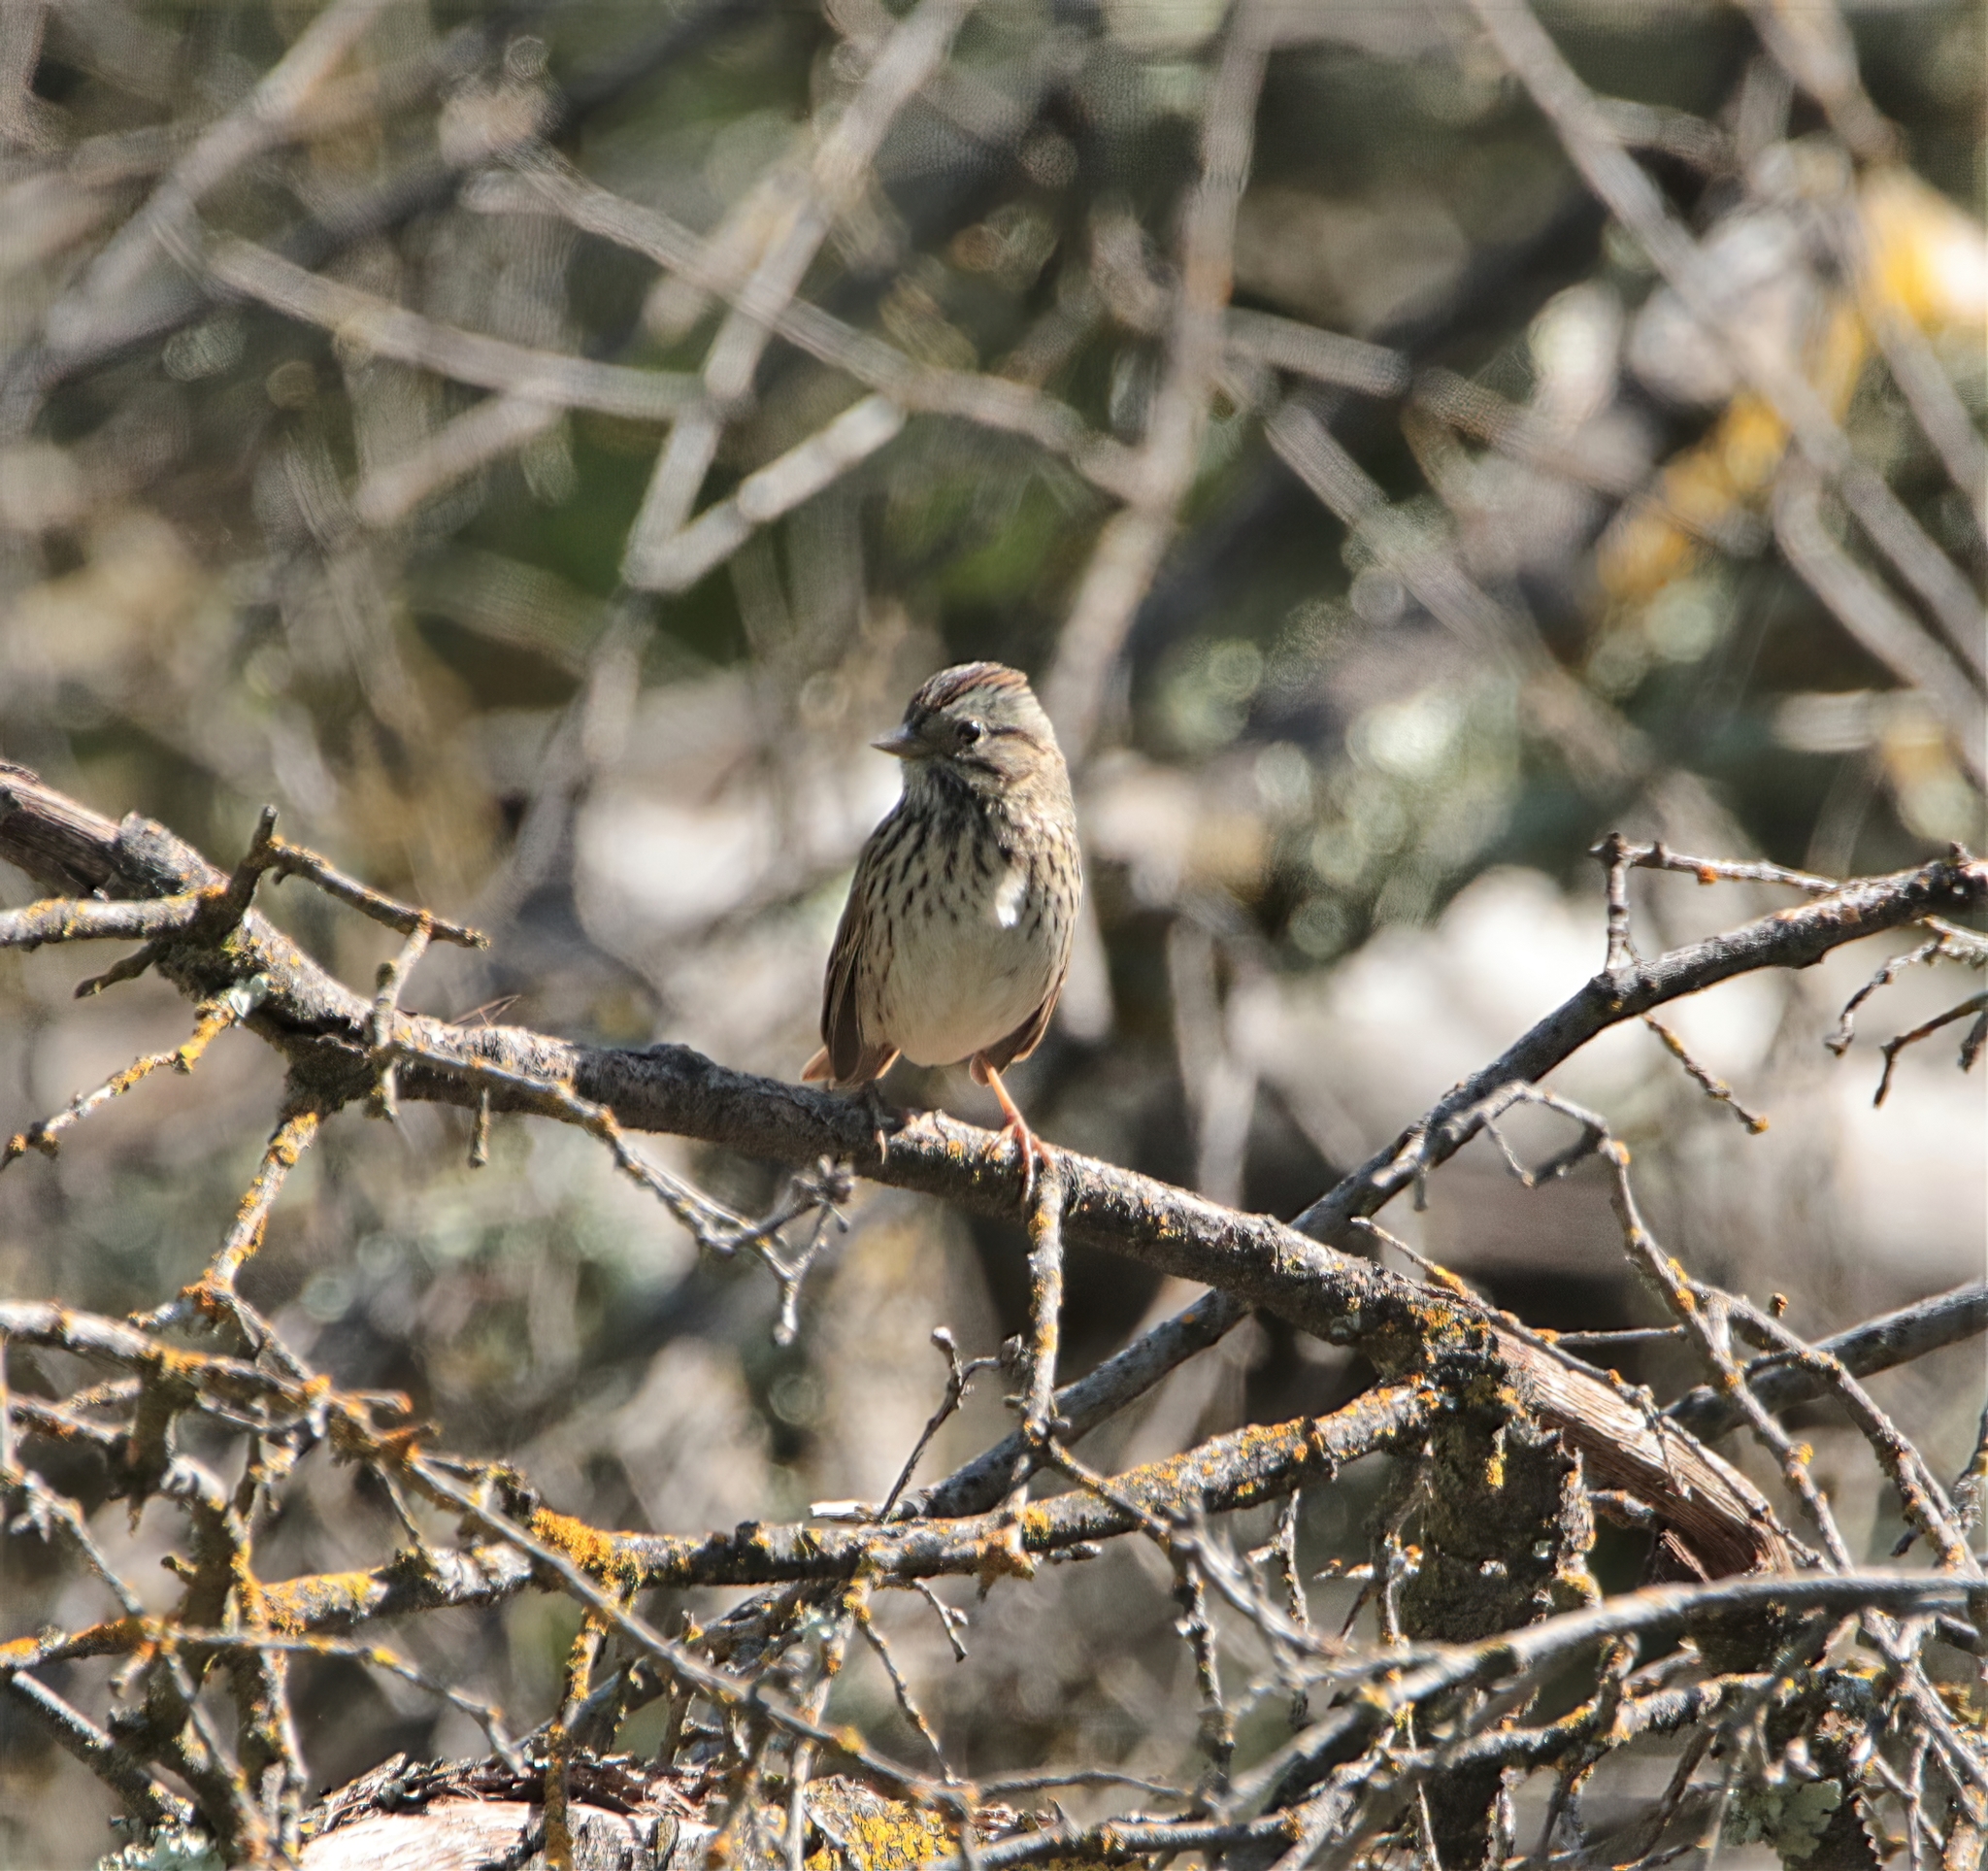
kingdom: Animalia
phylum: Chordata
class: Aves
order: Passeriformes
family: Passerellidae
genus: Melospiza
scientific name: Melospiza lincolnii
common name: Lincoln's sparrow
